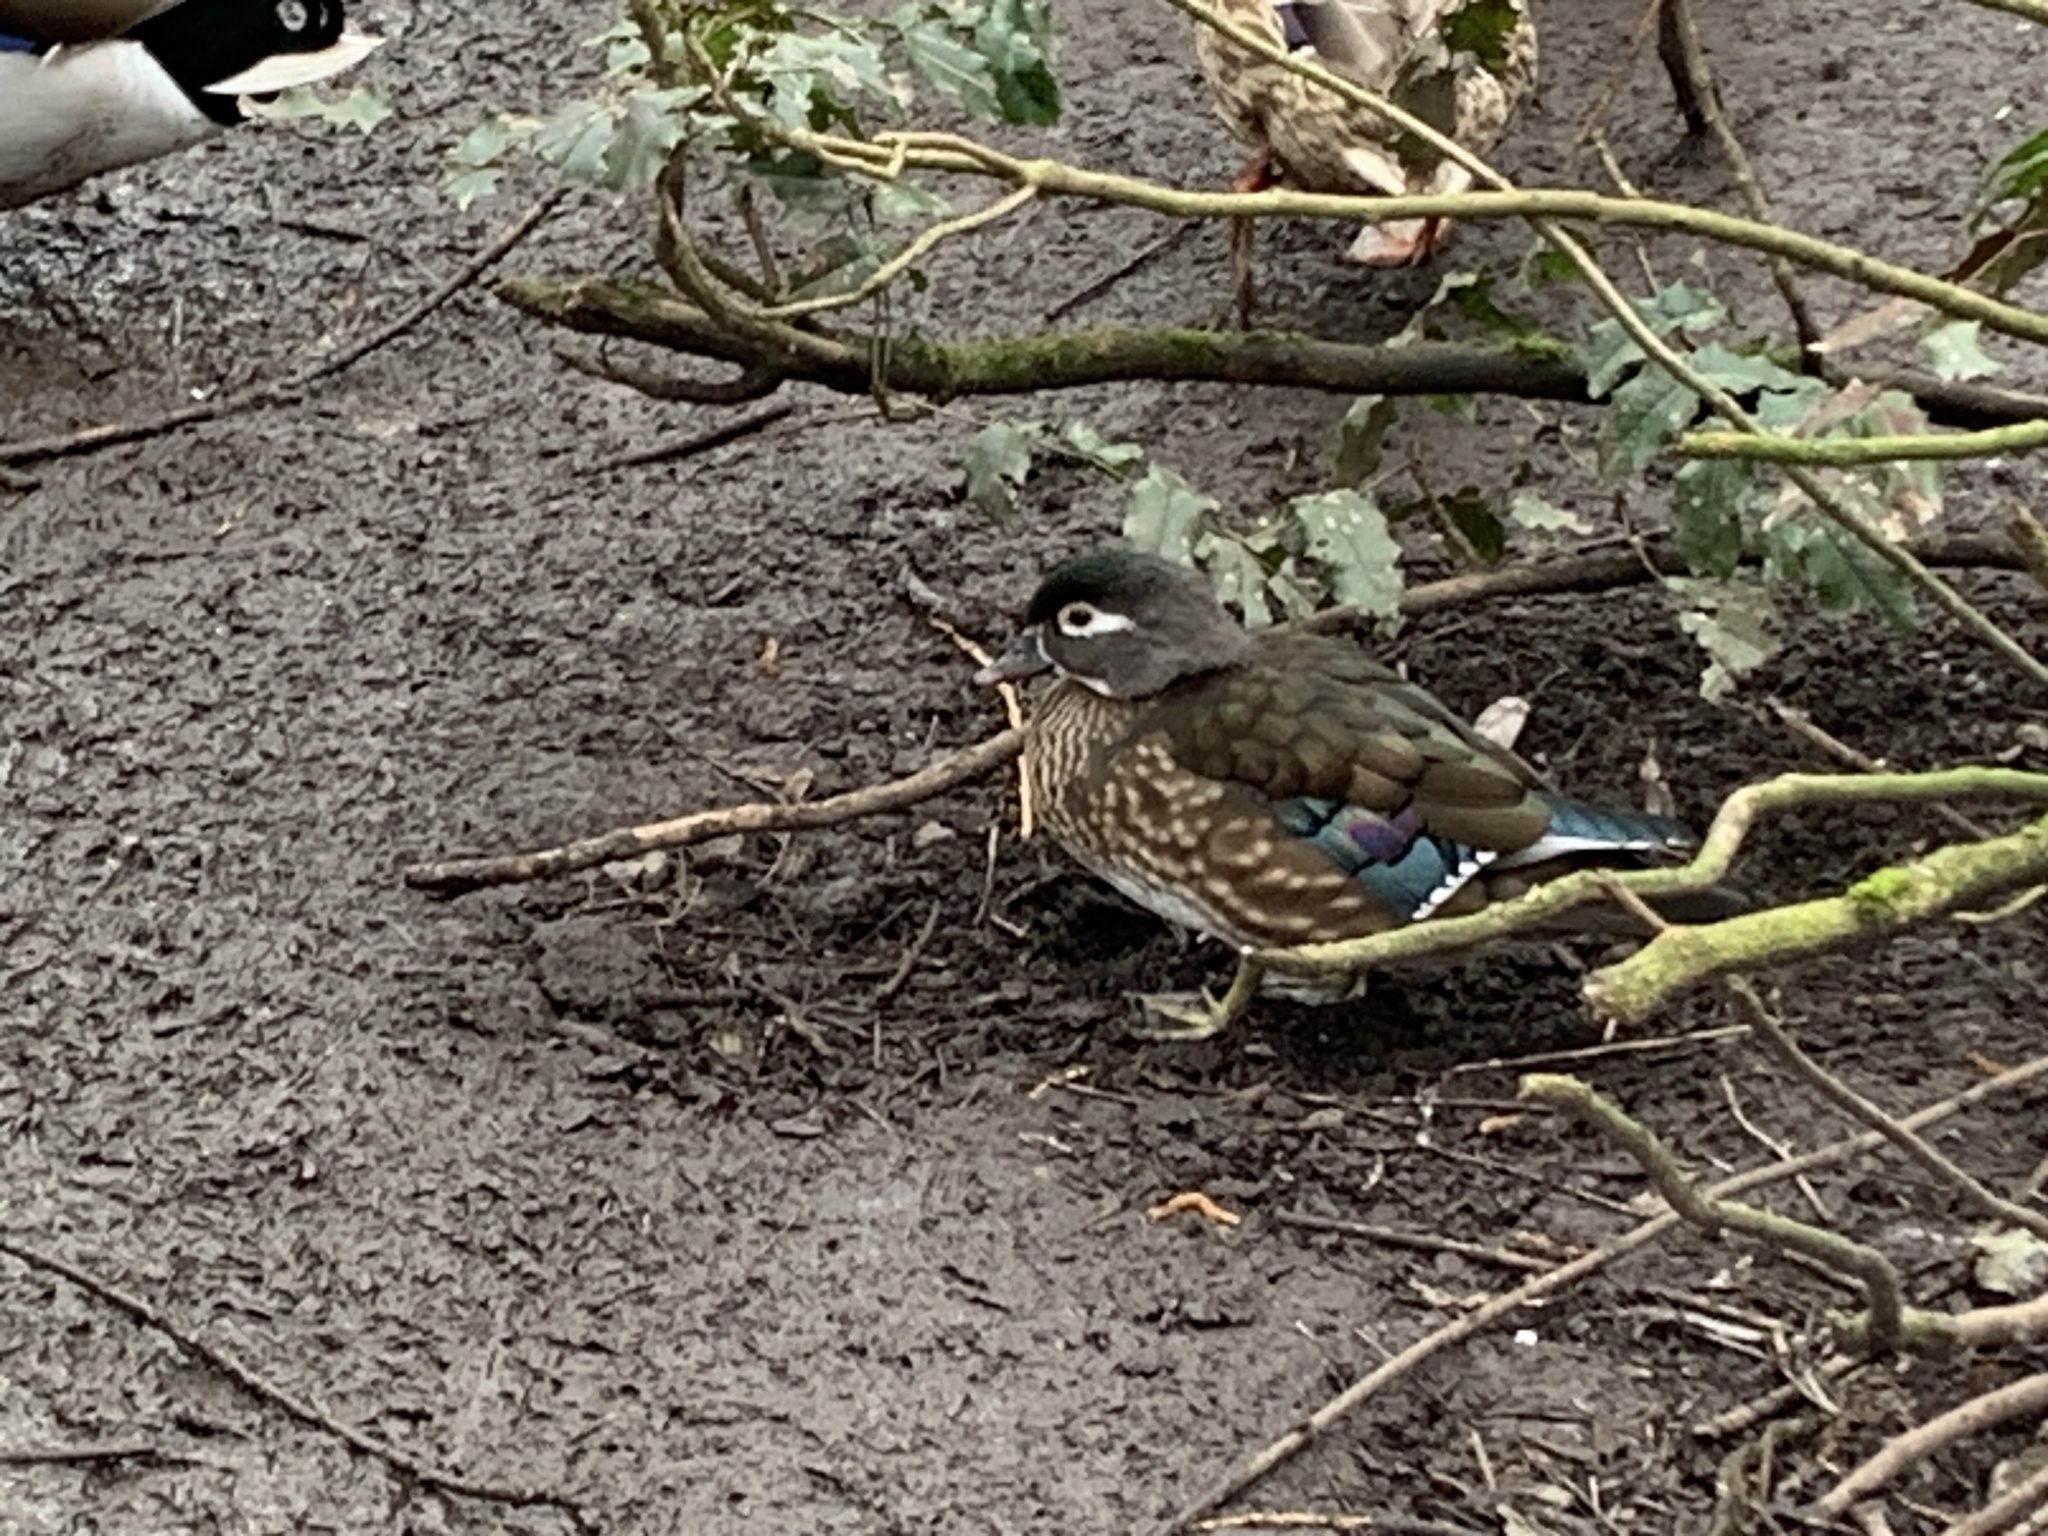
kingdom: Animalia
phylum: Chordata
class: Aves
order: Anseriformes
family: Anatidae
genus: Aix
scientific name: Aix sponsa
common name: Wood duck
